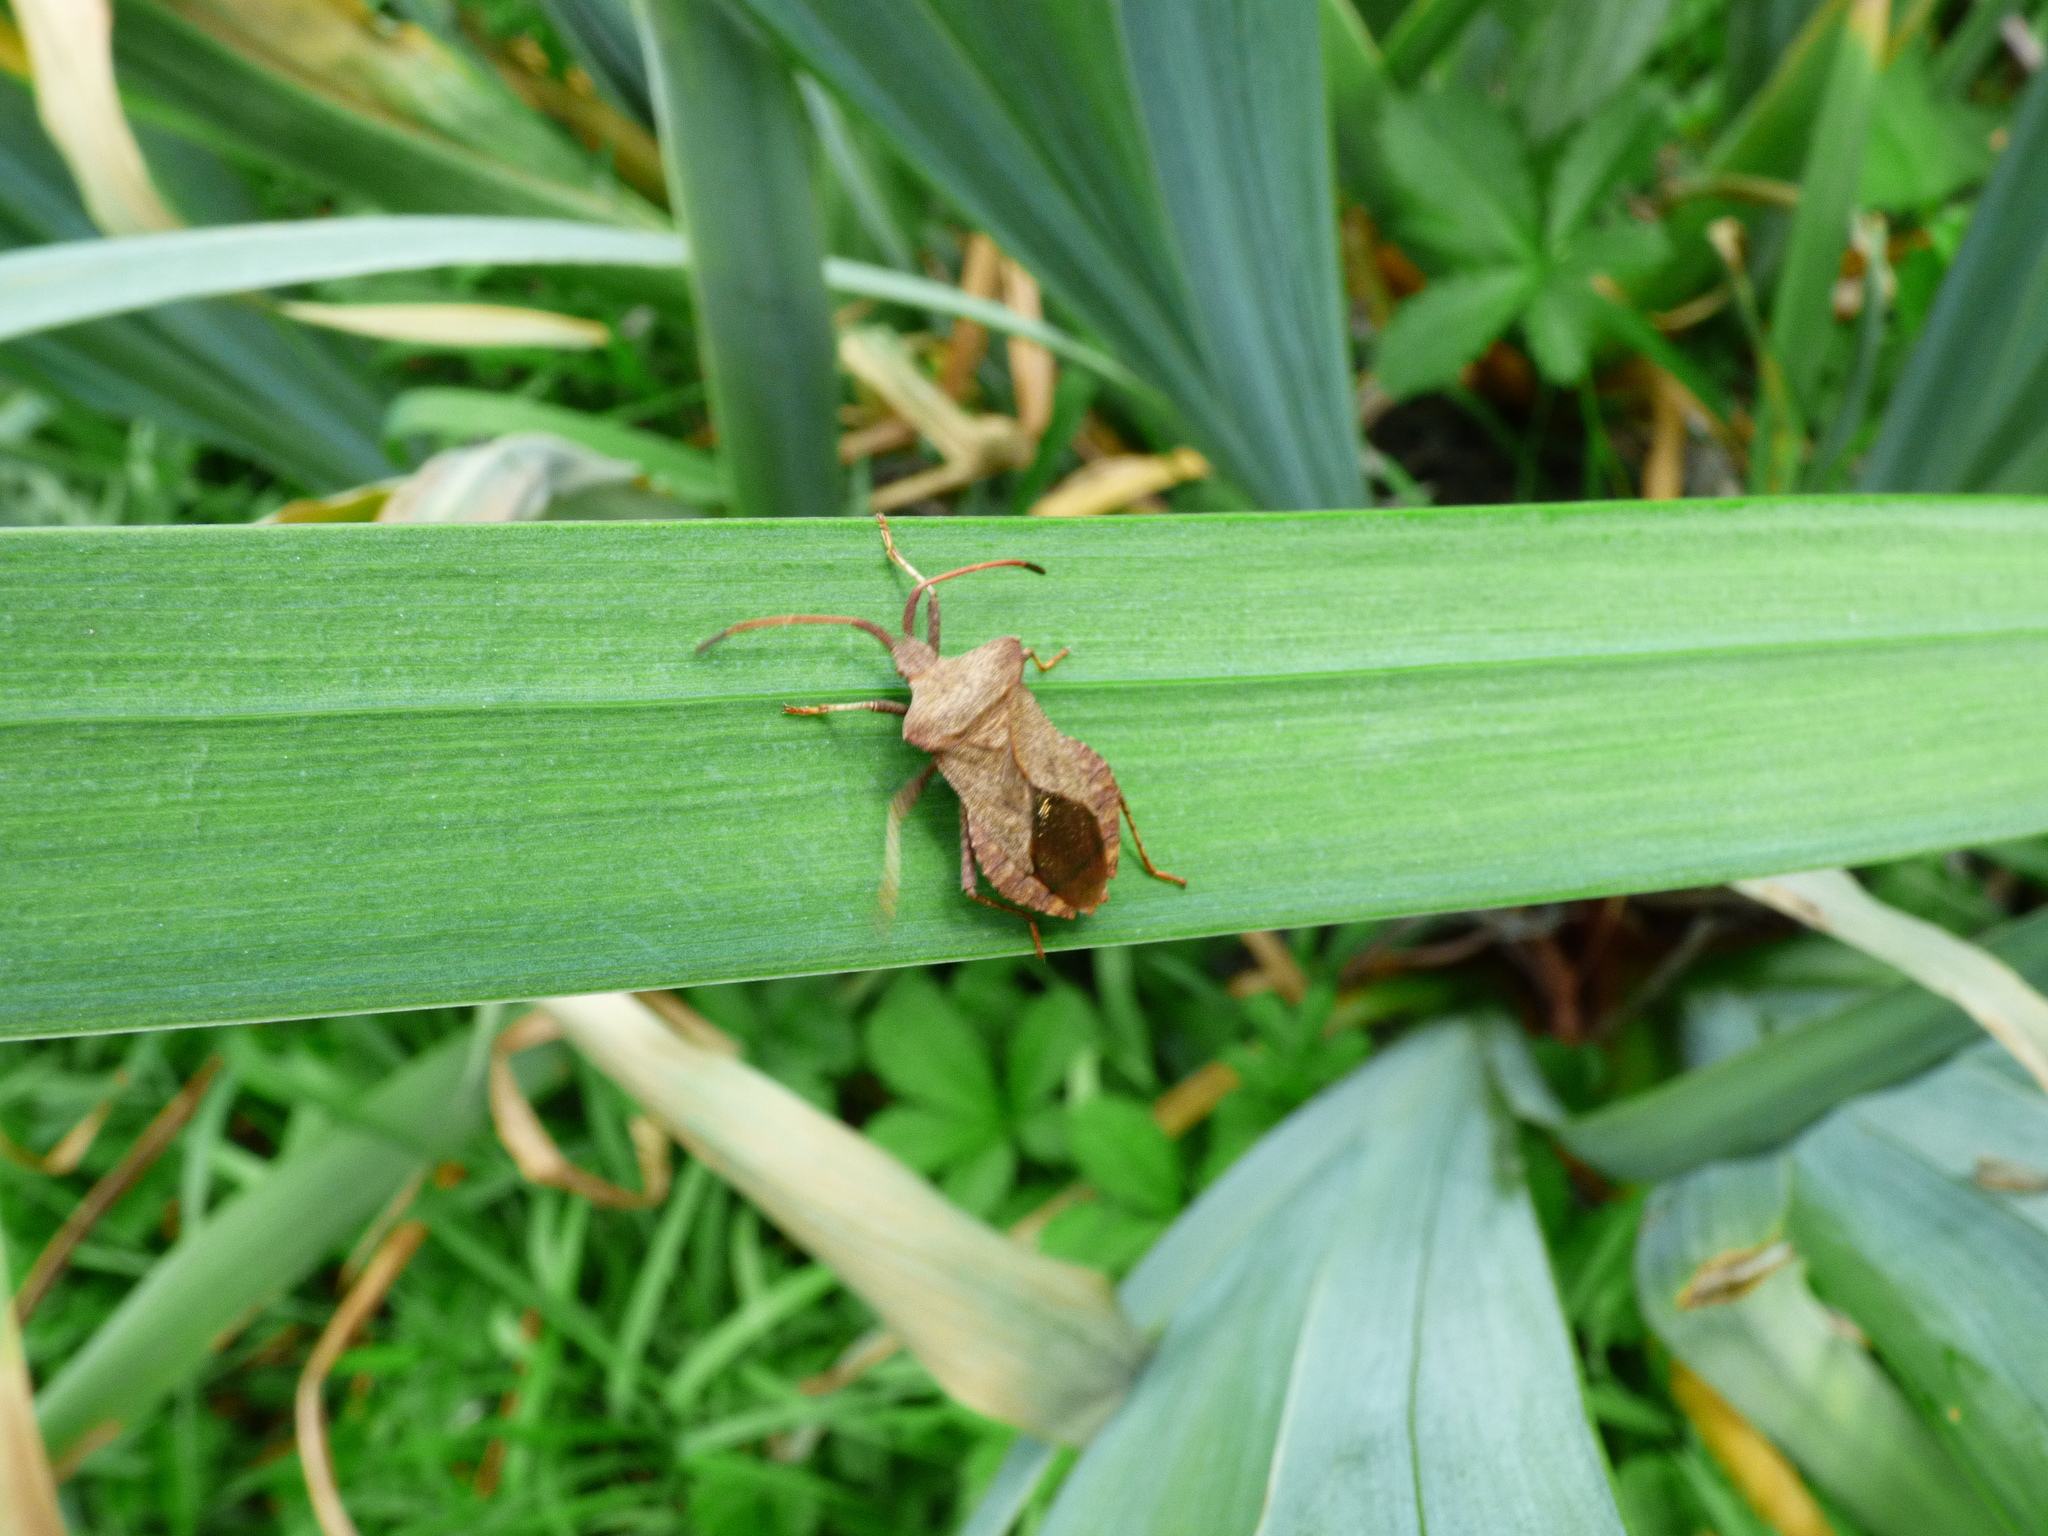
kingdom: Animalia
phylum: Arthropoda
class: Insecta
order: Hemiptera
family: Coreidae
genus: Coreus
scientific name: Coreus marginatus
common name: Dock bug
